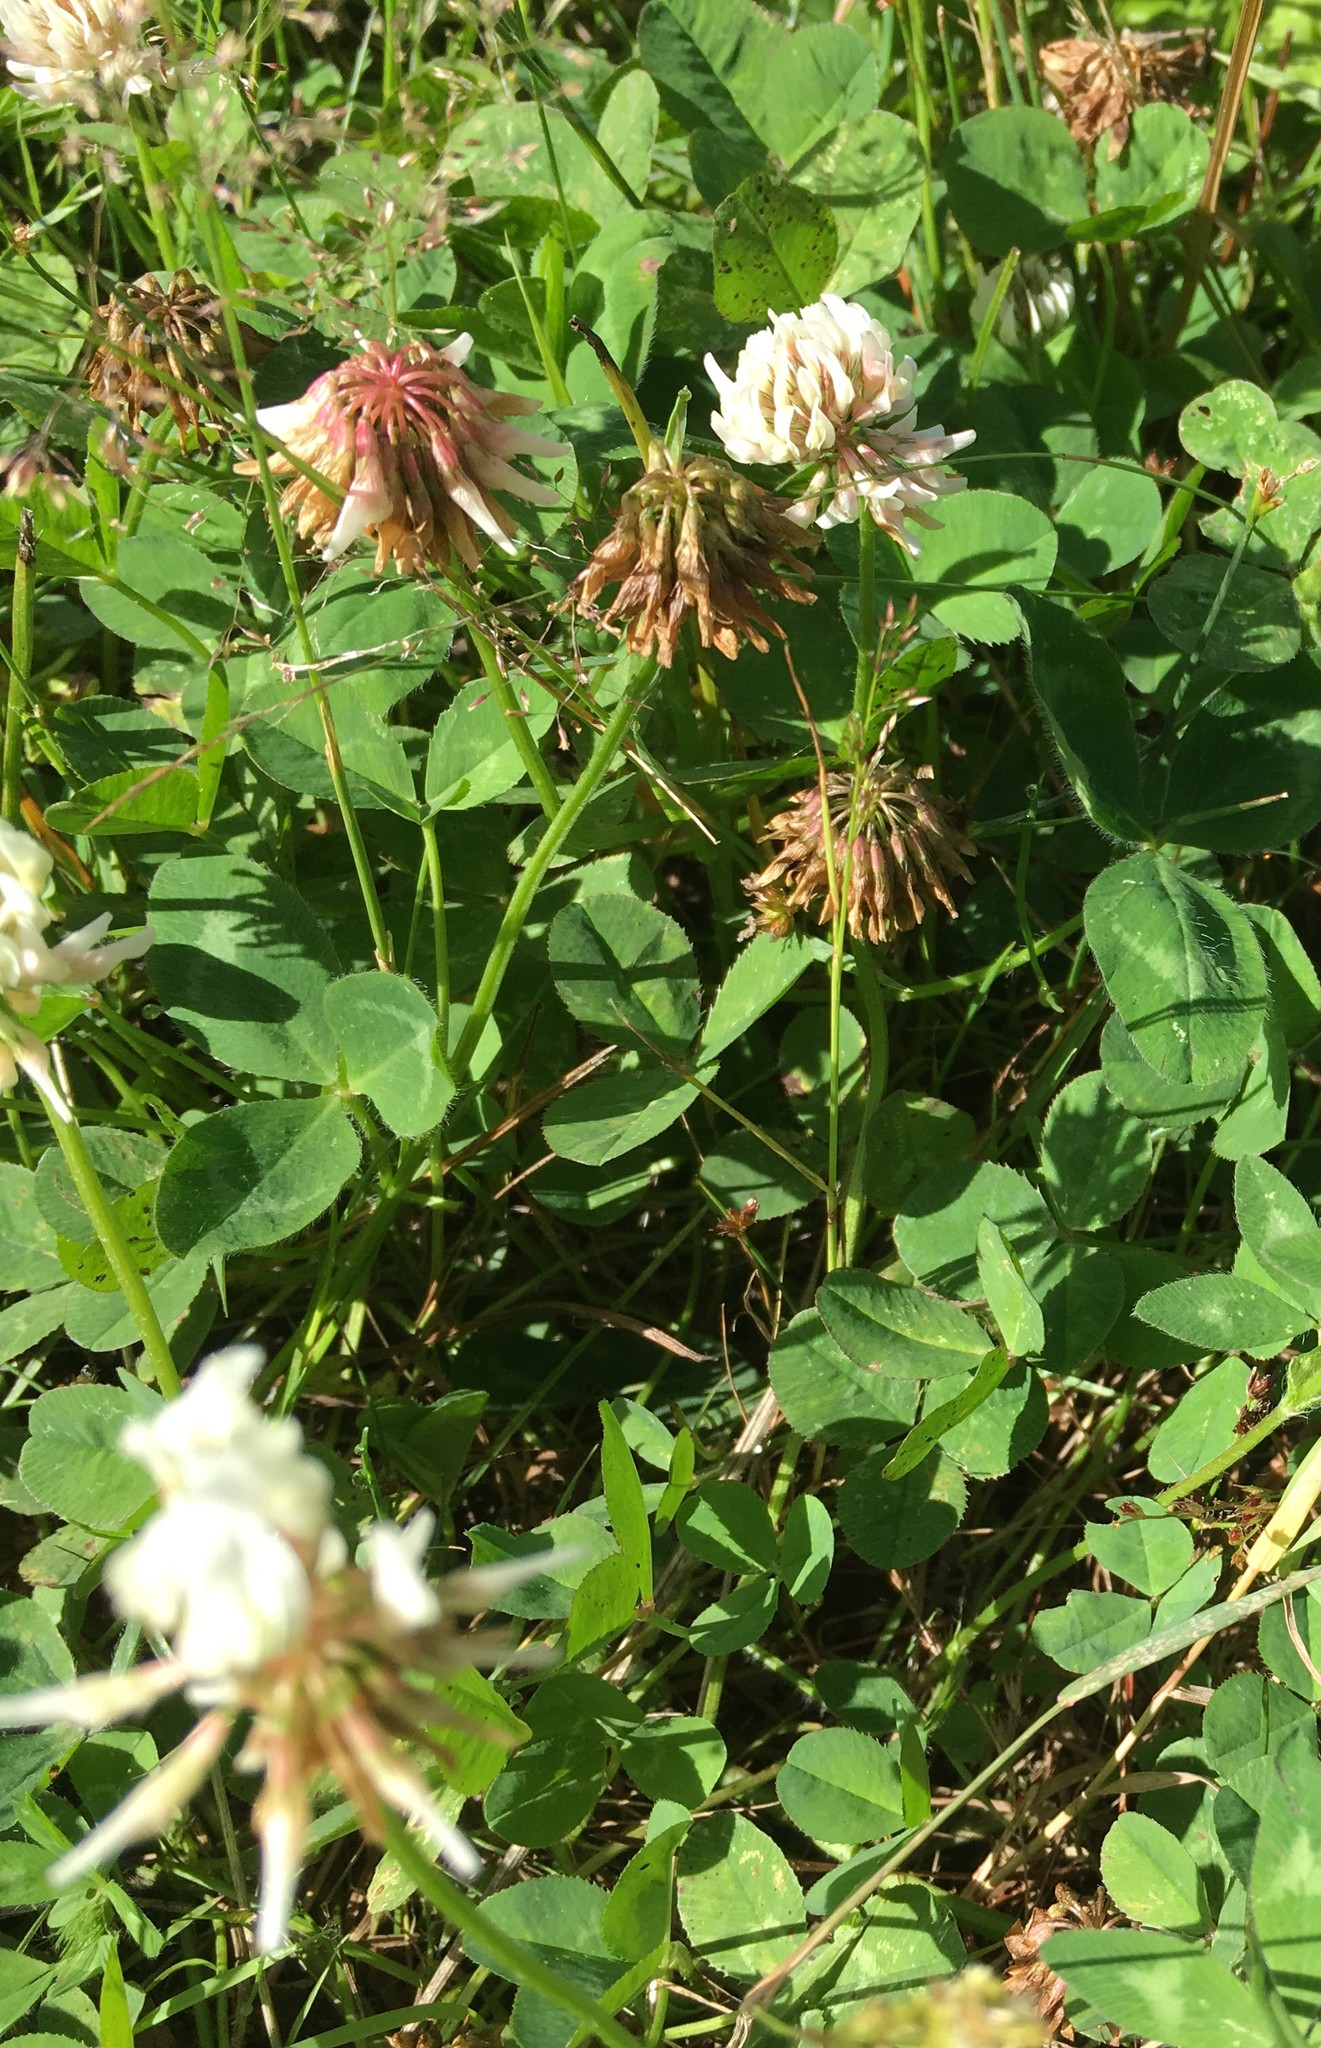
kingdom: Plantae
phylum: Tracheophyta
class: Magnoliopsida
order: Fabales
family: Fabaceae
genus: Trifolium
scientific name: Trifolium repens
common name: White clover
